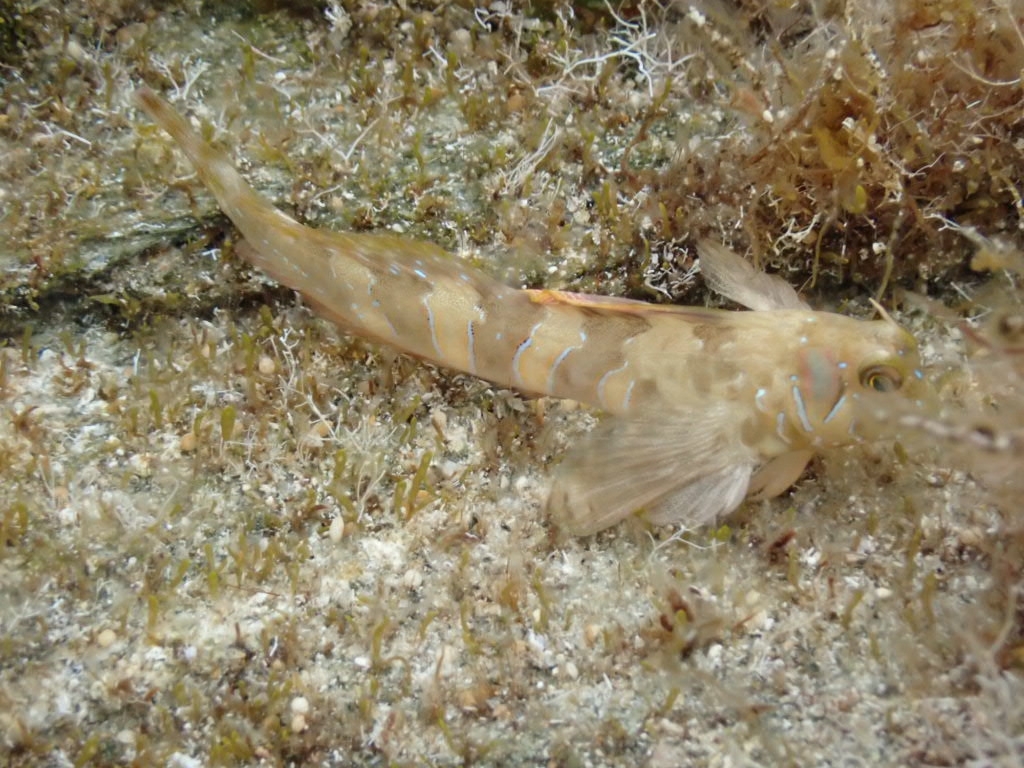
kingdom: Animalia
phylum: Chordata
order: Perciformes
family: Blenniidae
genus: Aidablennius
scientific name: Aidablennius sphynx
